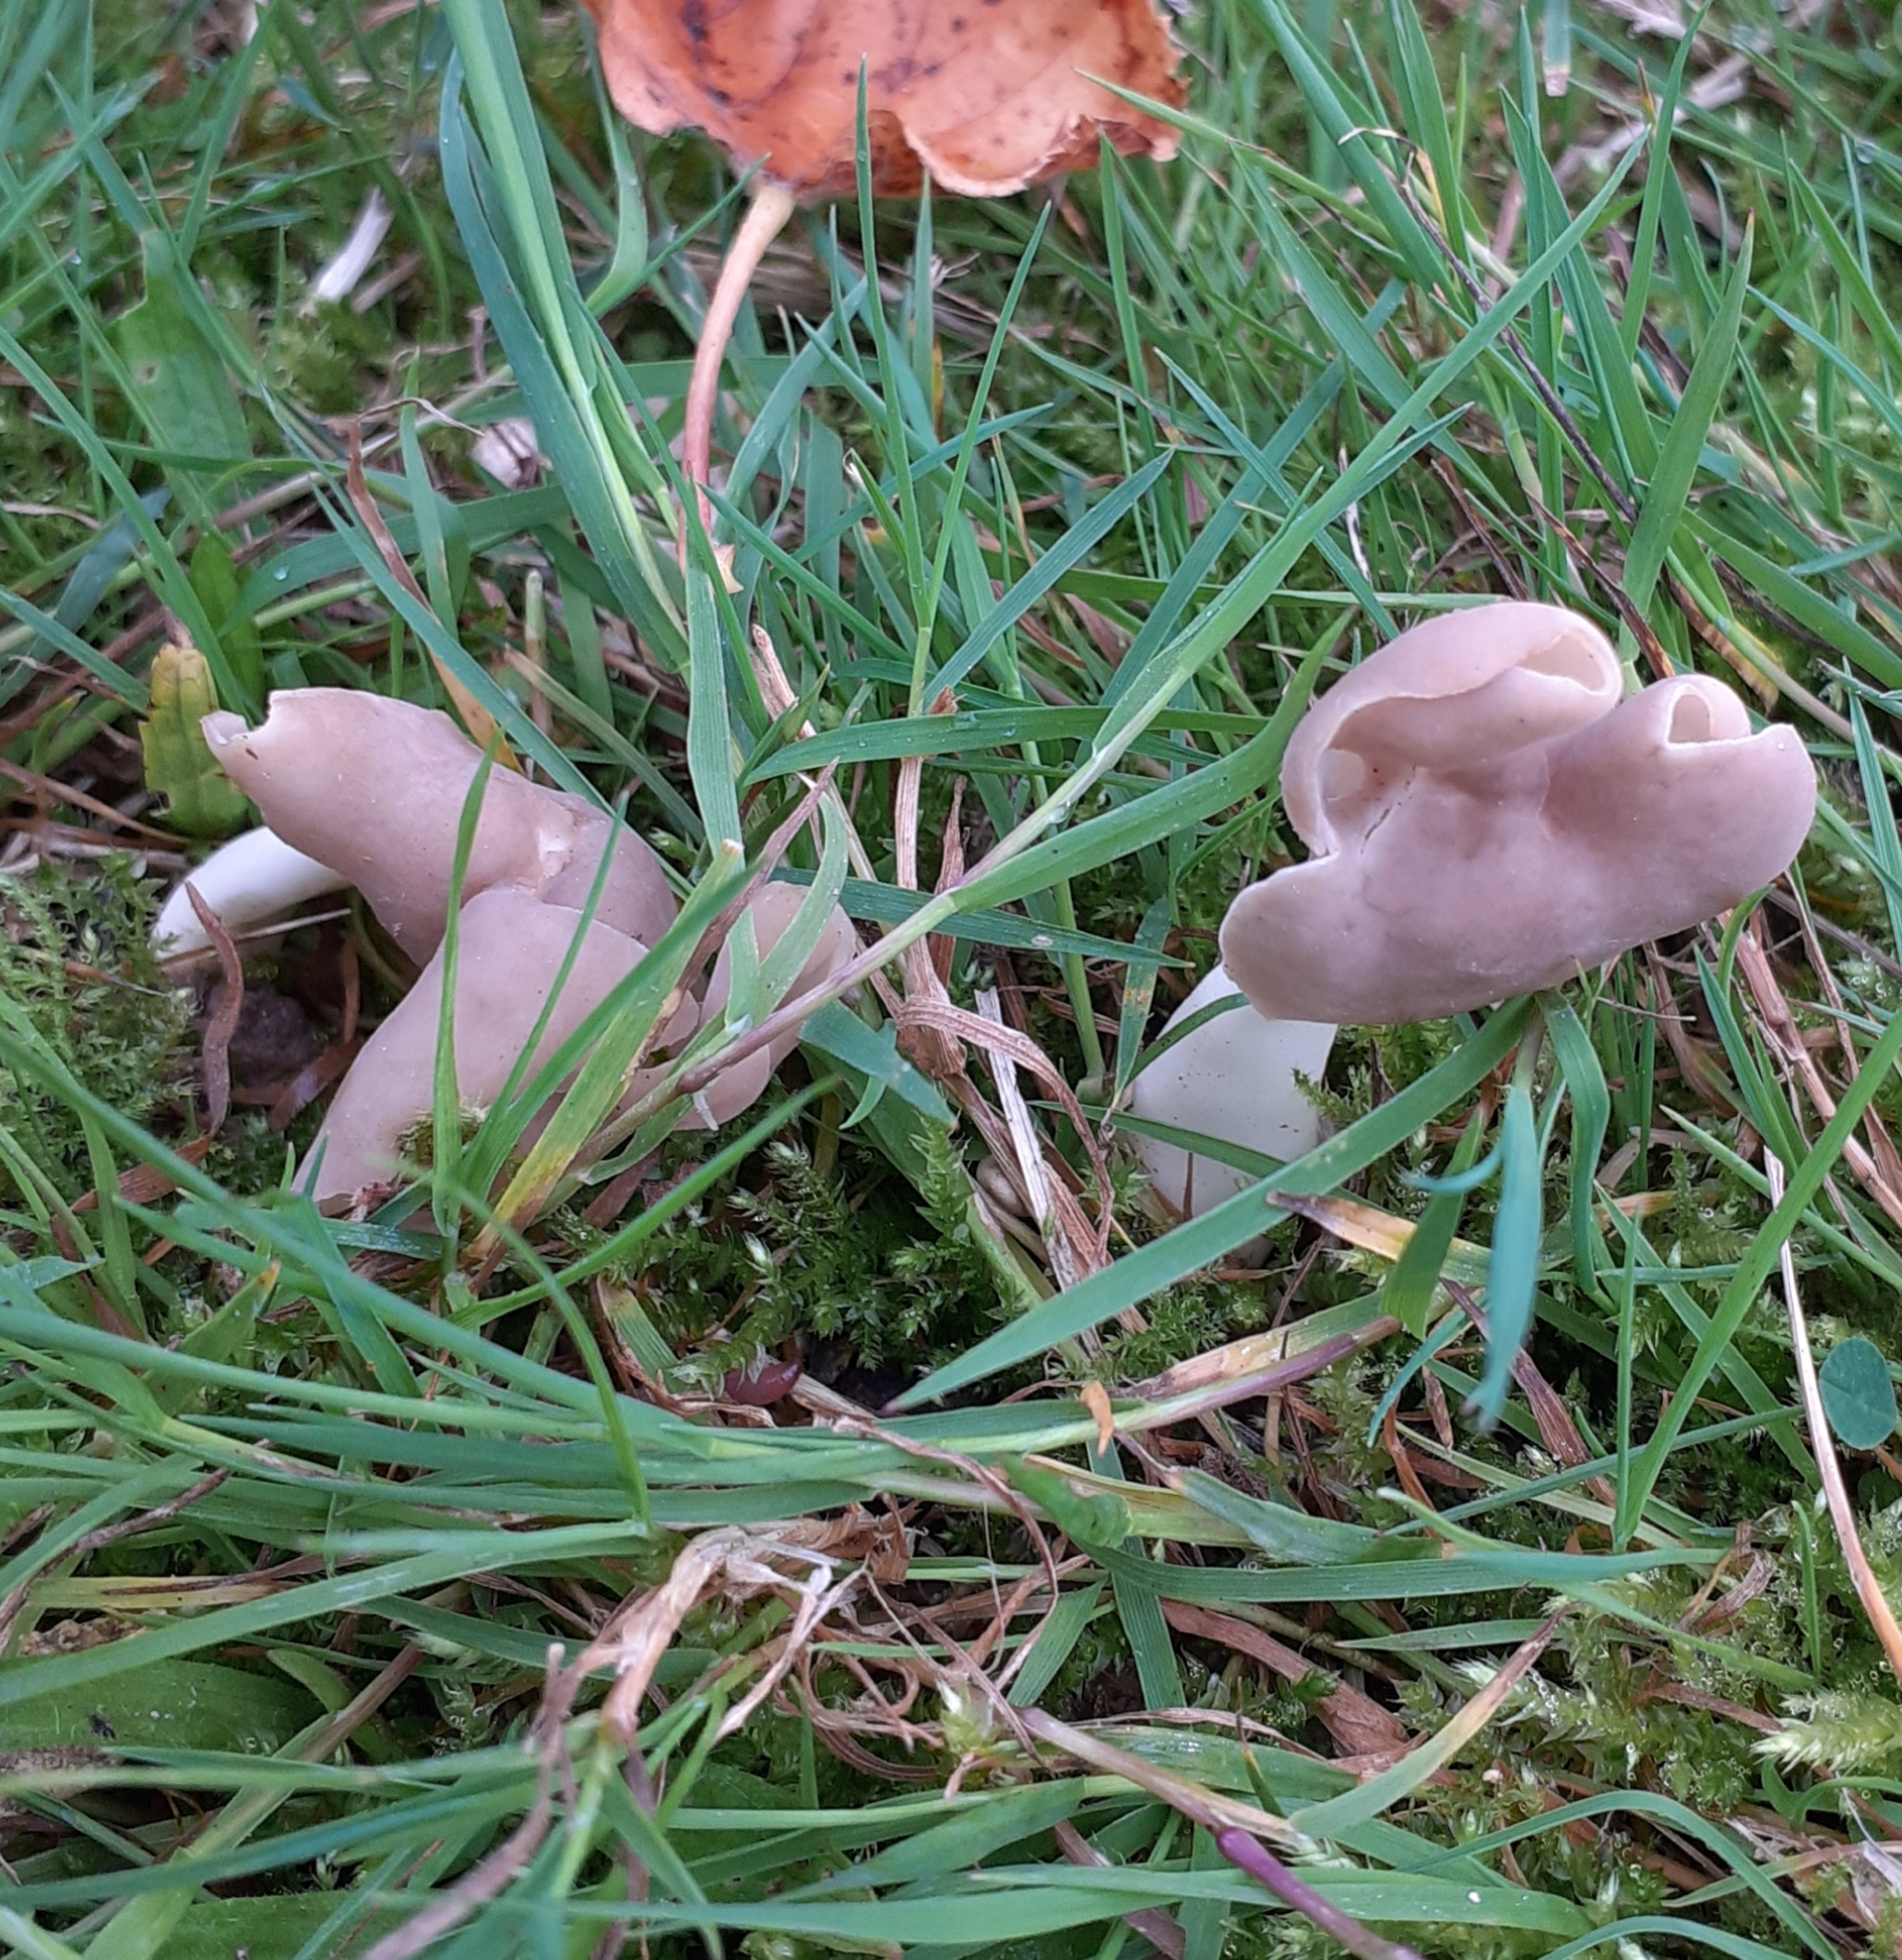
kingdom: Fungi
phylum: Ascomycota
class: Pezizomycetes
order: Pezizales
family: Helvellaceae
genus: Helvella
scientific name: Helvella elastica
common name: Elastic saddle
